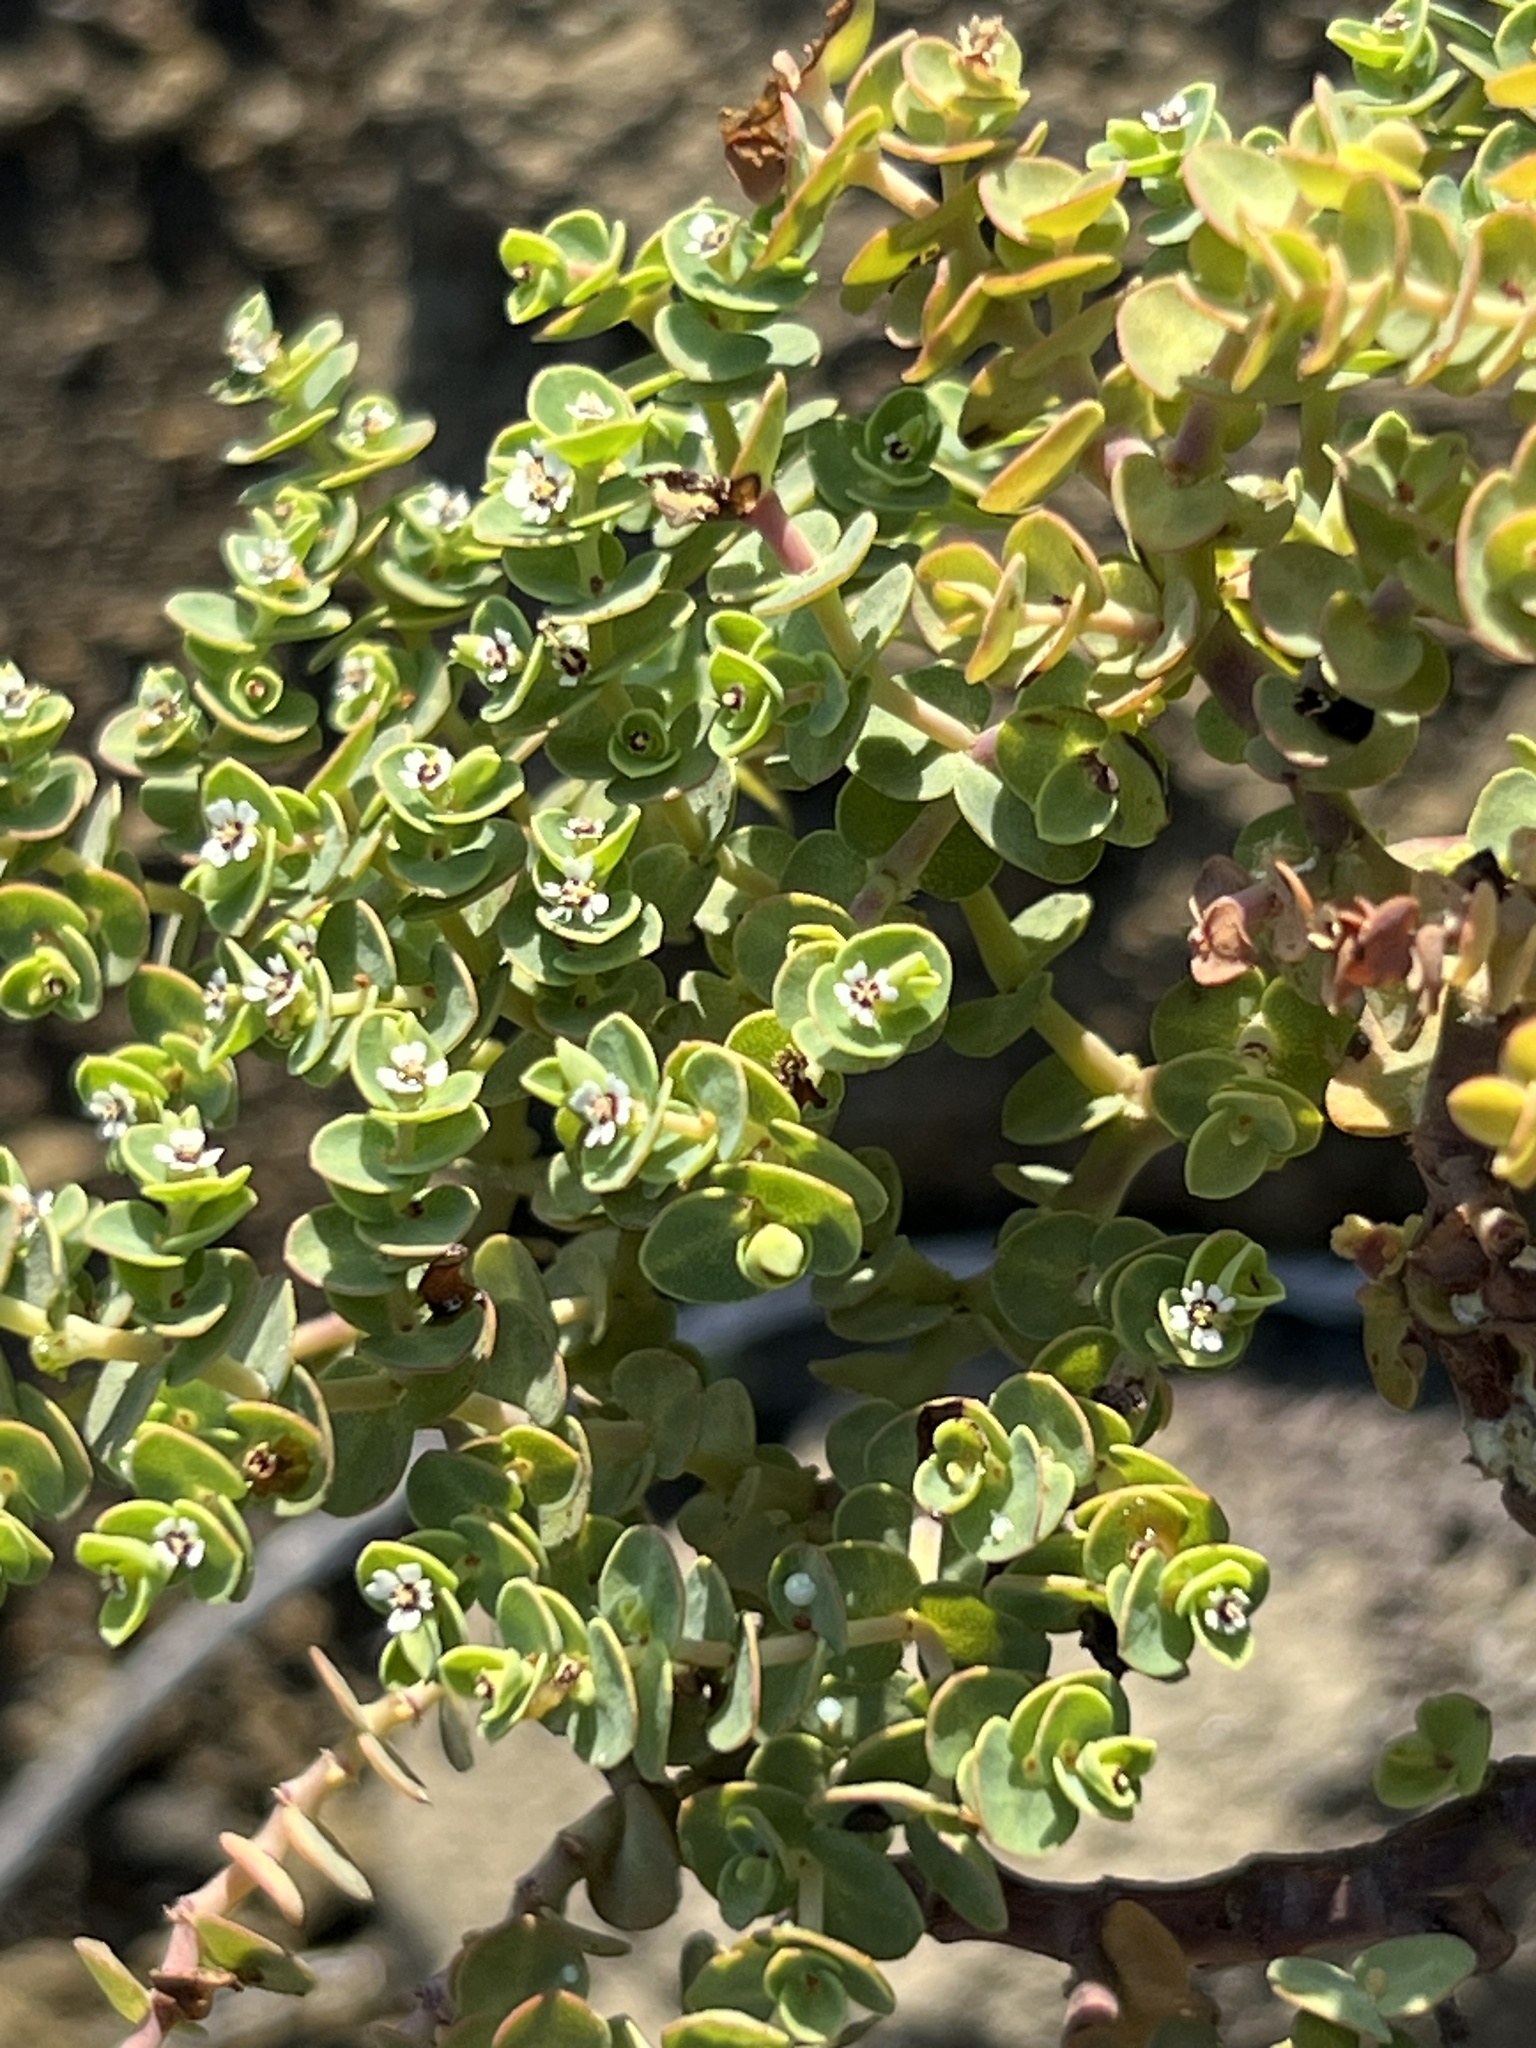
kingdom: Plantae
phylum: Tracheophyta
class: Magnoliopsida
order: Malpighiales
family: Euphorbiaceae
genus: Euphorbia
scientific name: Euphorbia amplexicaulis
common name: Chamaesyce
